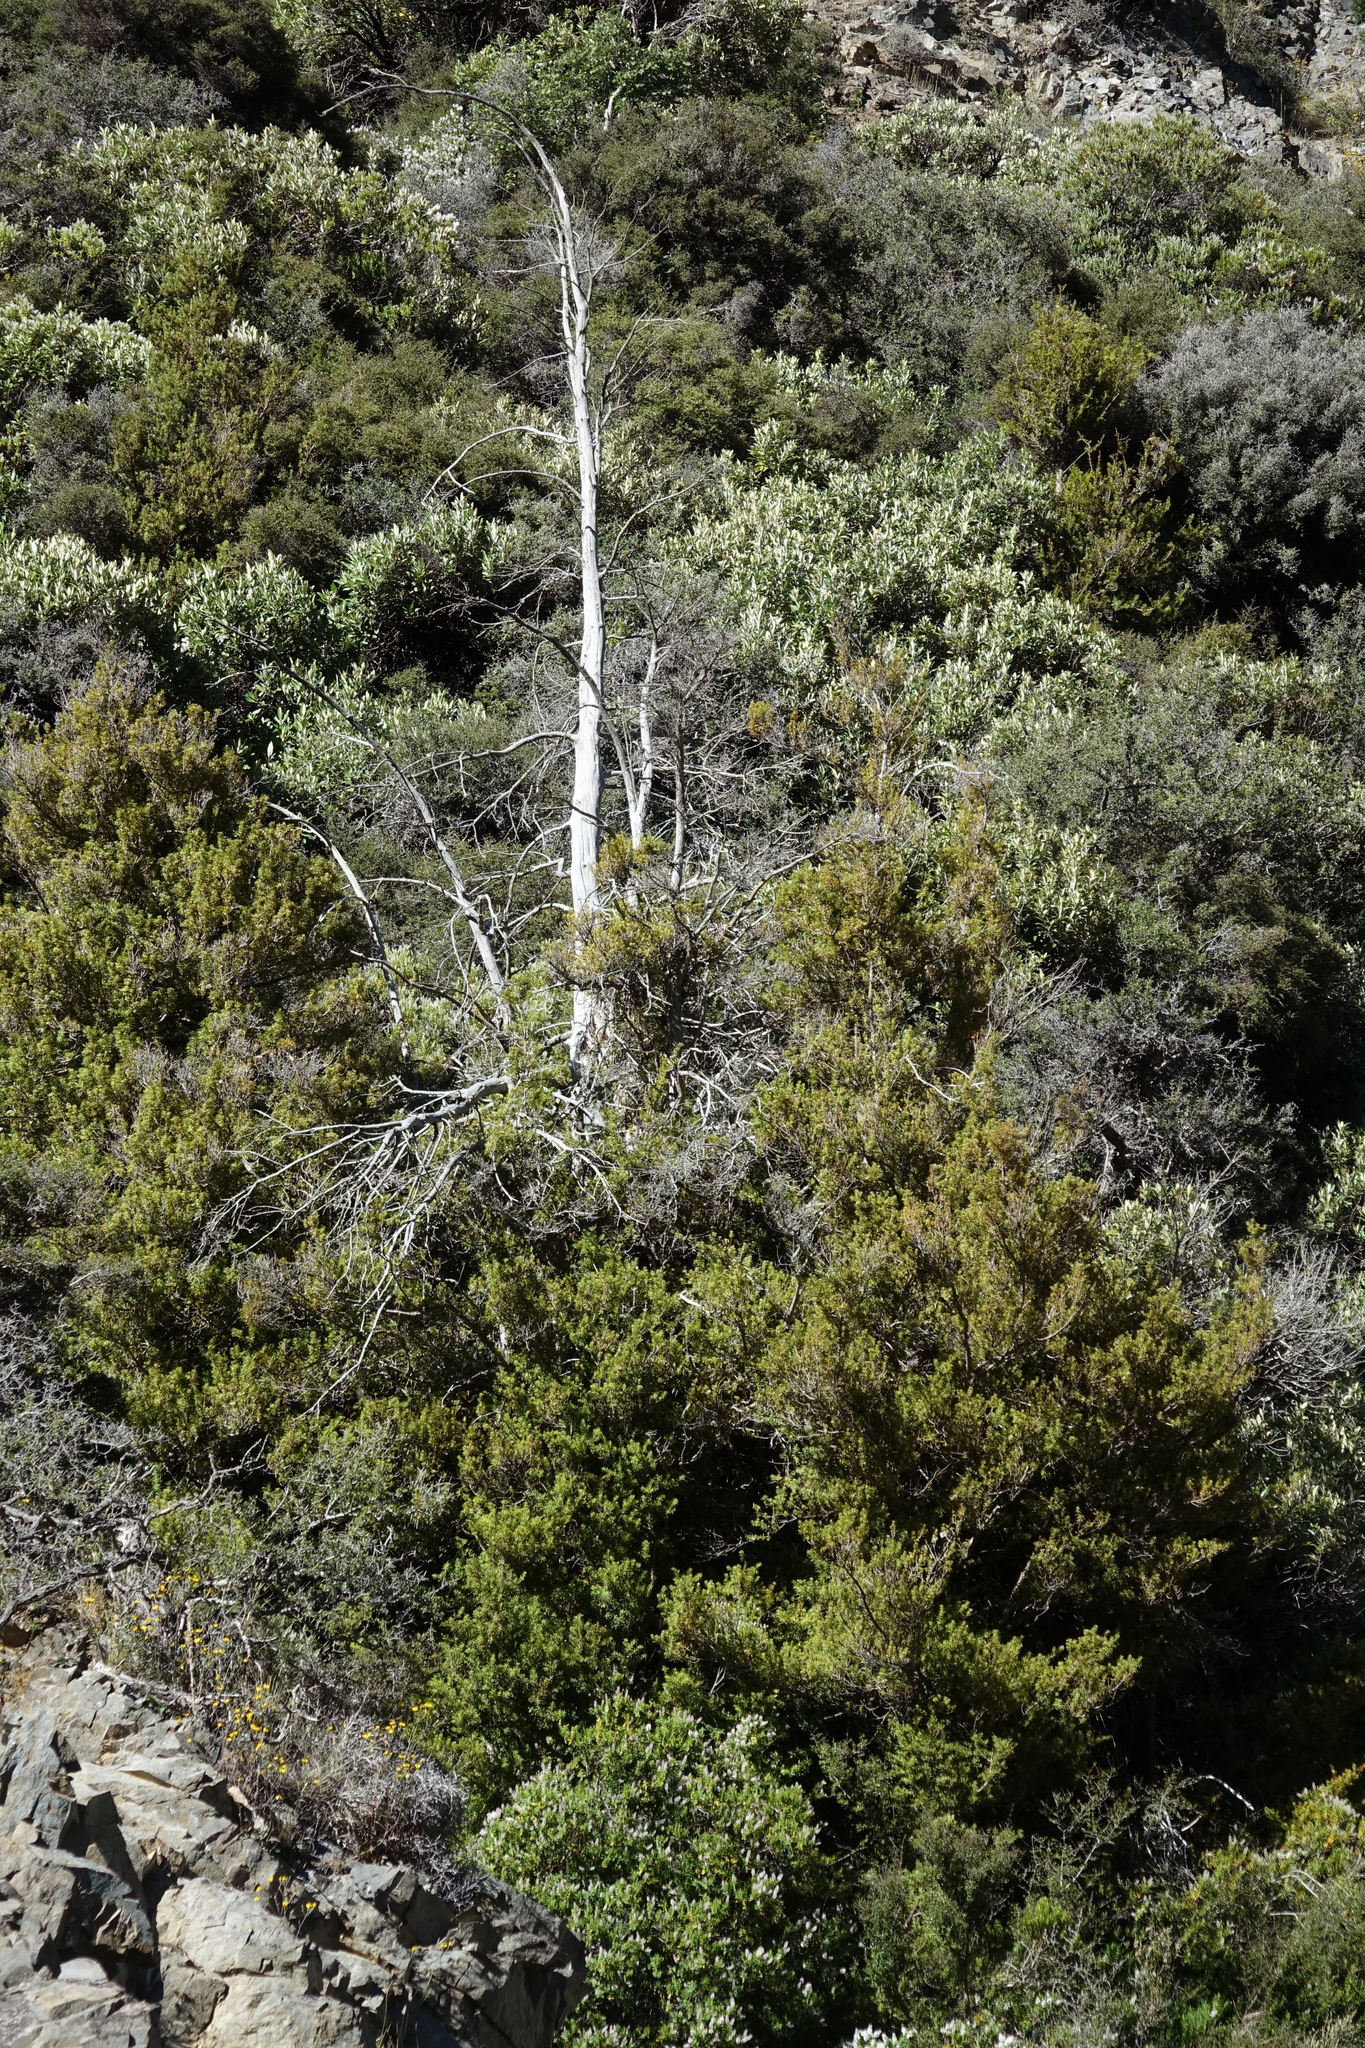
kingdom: Plantae
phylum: Tracheophyta
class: Pinopsida
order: Pinales
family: Podocarpaceae
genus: Podocarpus
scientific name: Podocarpus laetus
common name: Hall's totara
